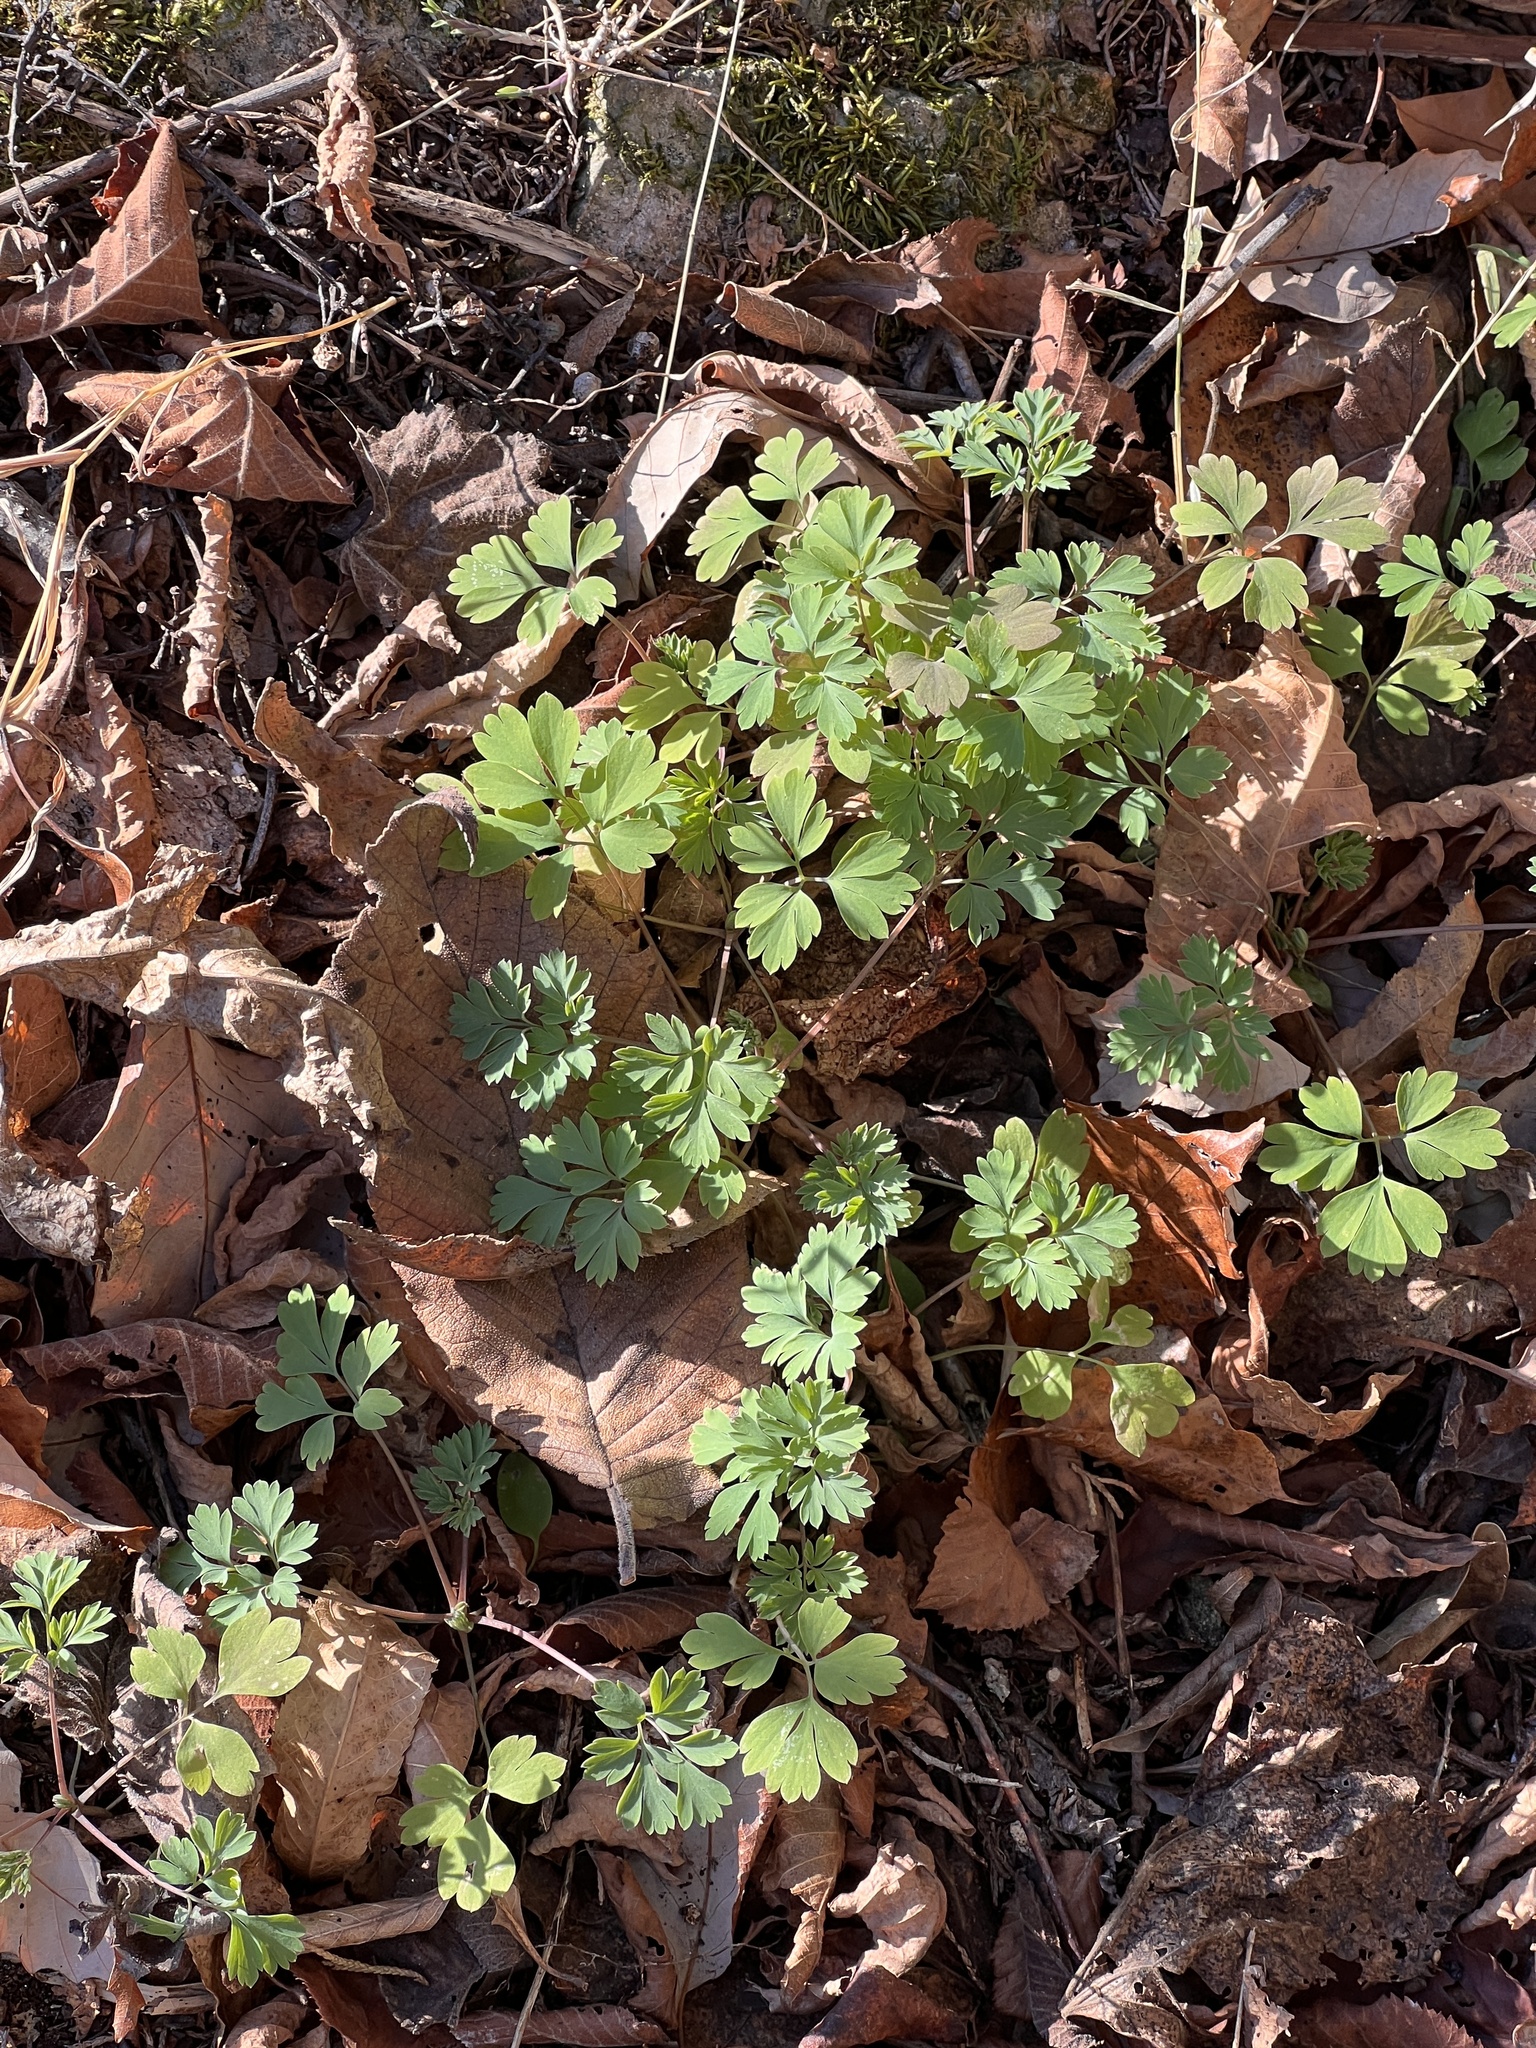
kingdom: Plantae
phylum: Tracheophyta
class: Magnoliopsida
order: Ranunculales
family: Papaveraceae
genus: Dicentra
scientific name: Dicentra cucullaria
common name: Dutchman's breeches
